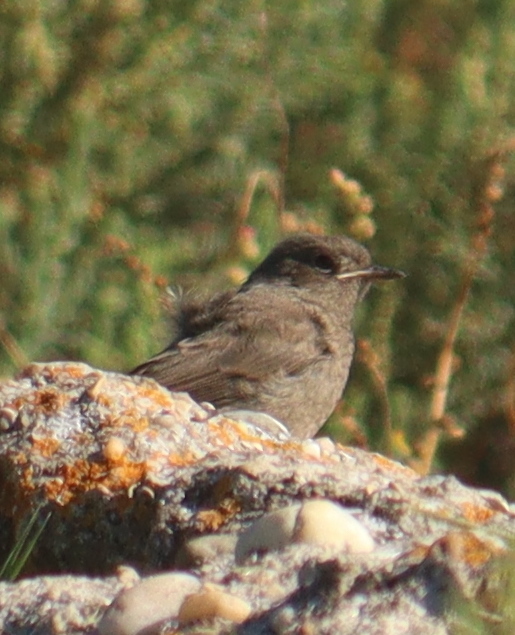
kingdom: Animalia
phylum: Chordata
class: Aves
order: Passeriformes
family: Muscicapidae
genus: Phoenicurus
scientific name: Phoenicurus ochruros
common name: Black redstart
